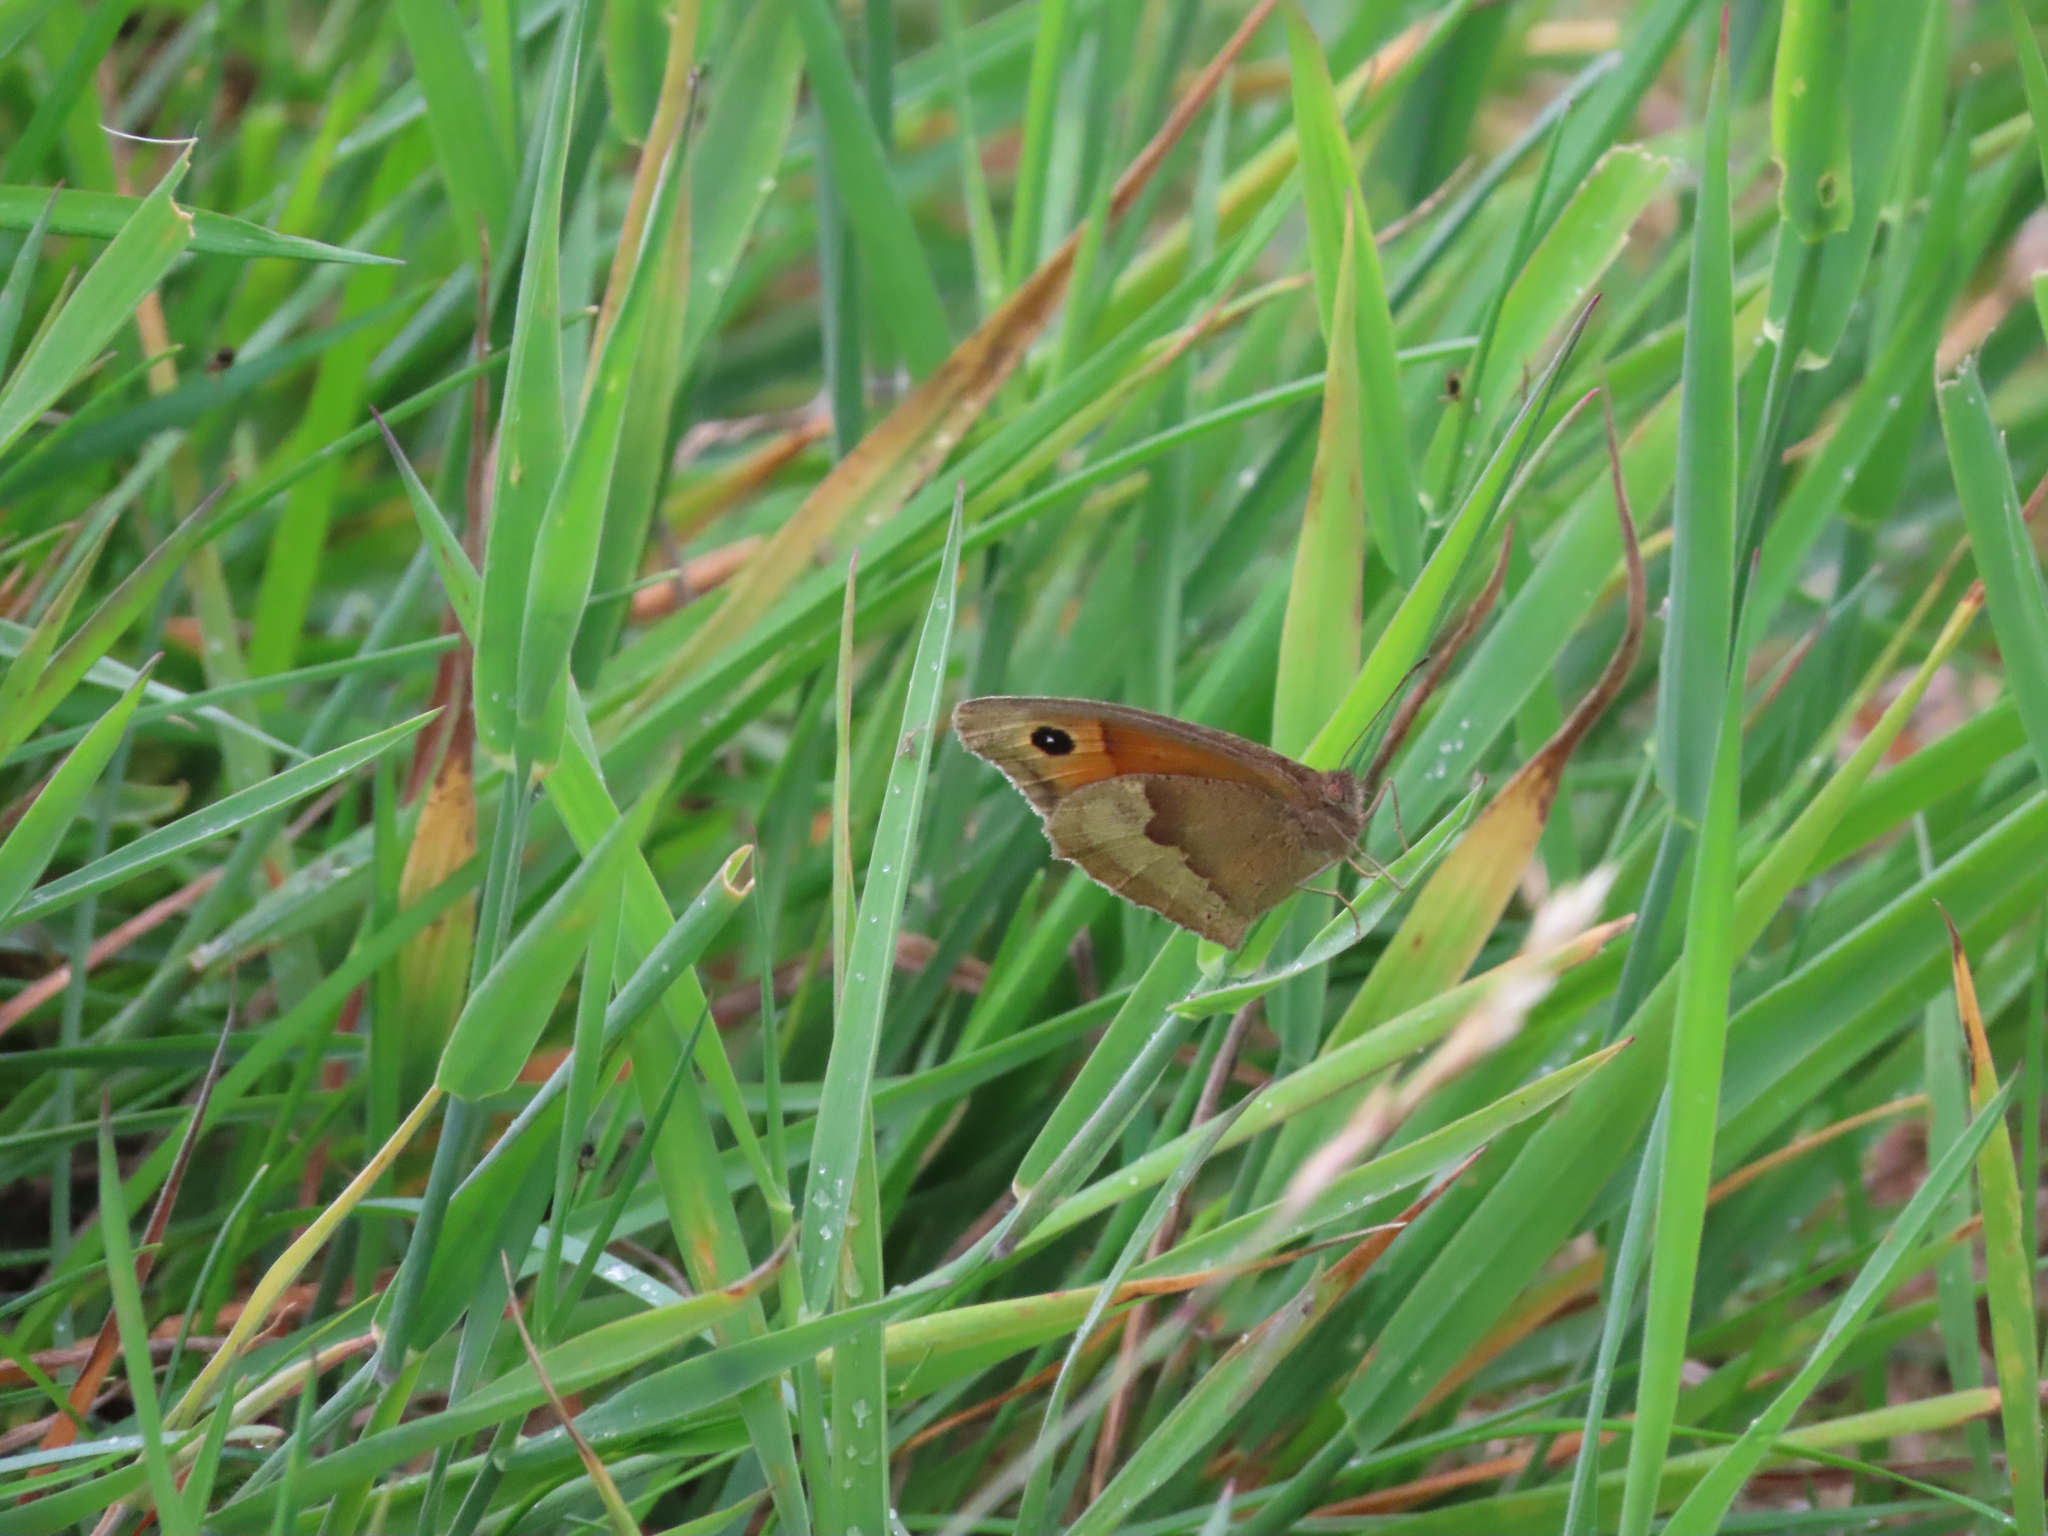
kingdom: Animalia
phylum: Arthropoda
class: Insecta
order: Lepidoptera
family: Nymphalidae
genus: Maniola
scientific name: Maniola jurtina
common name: Meadow brown
